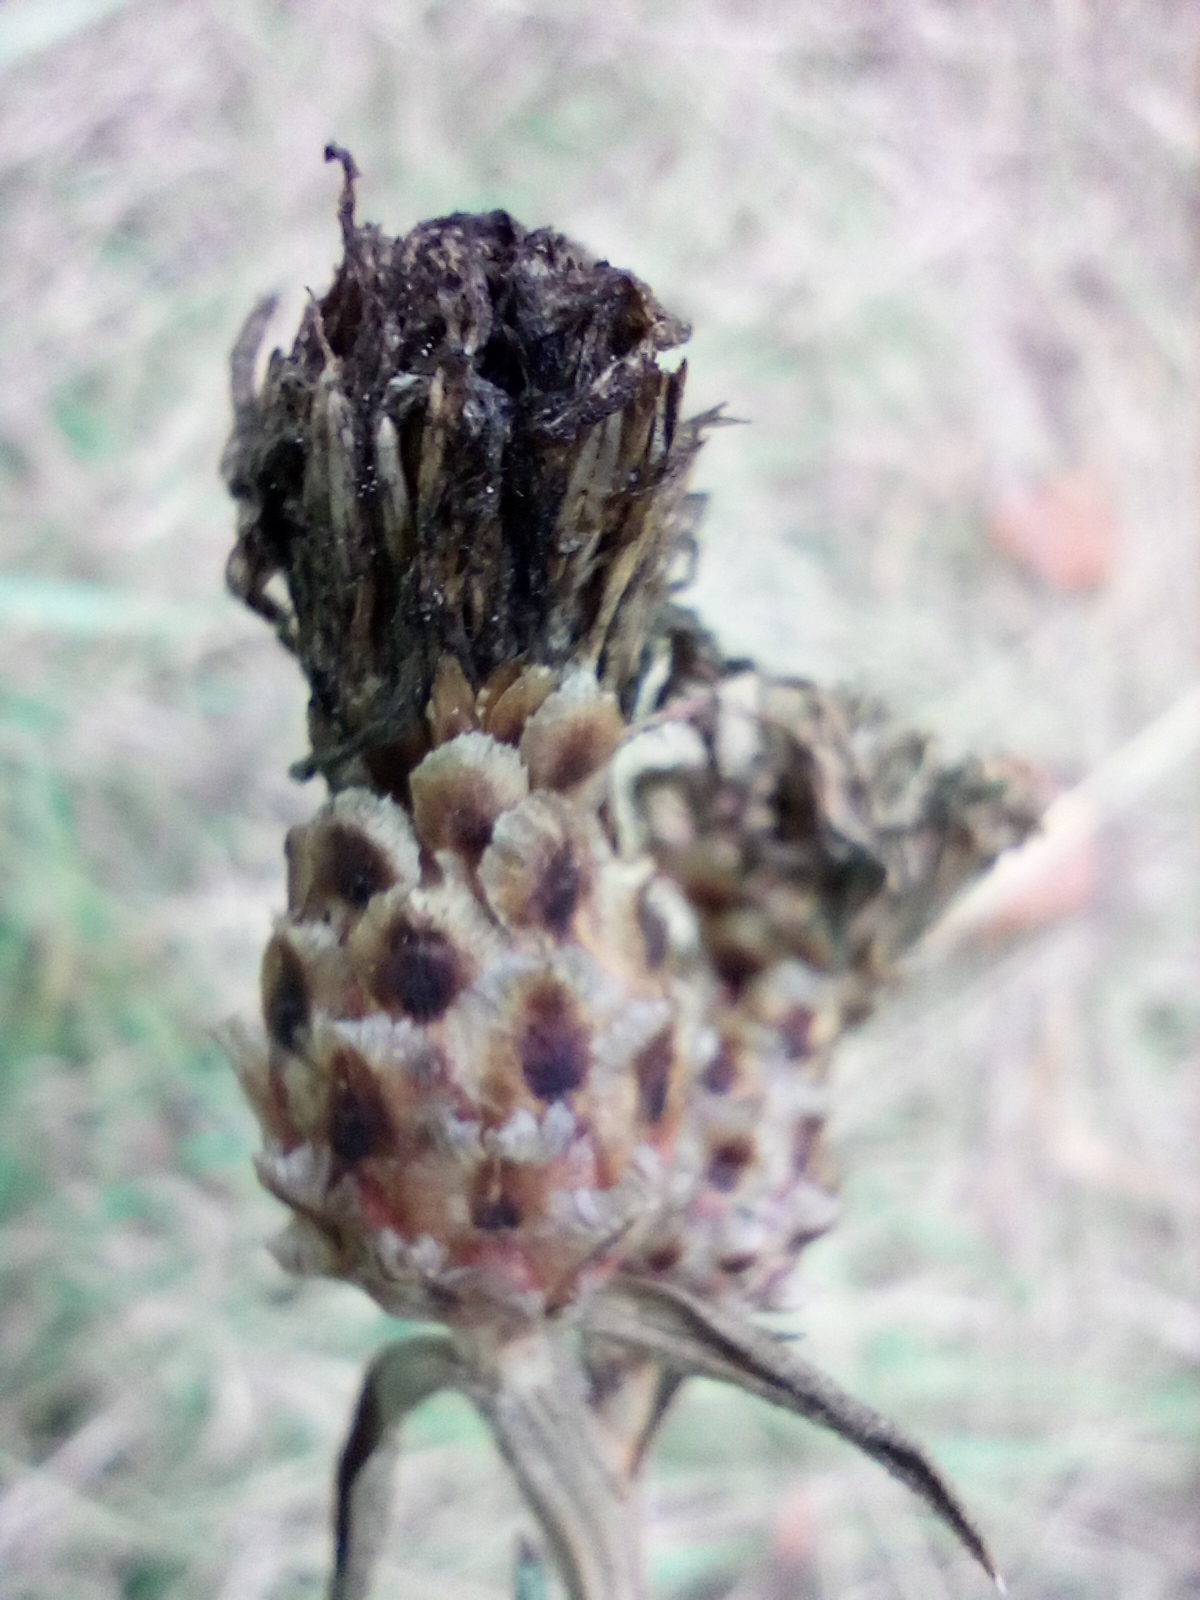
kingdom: Plantae
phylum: Tracheophyta
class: Magnoliopsida
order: Asterales
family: Asteraceae
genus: Centaurea
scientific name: Centaurea jacea
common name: Brown knapweed
